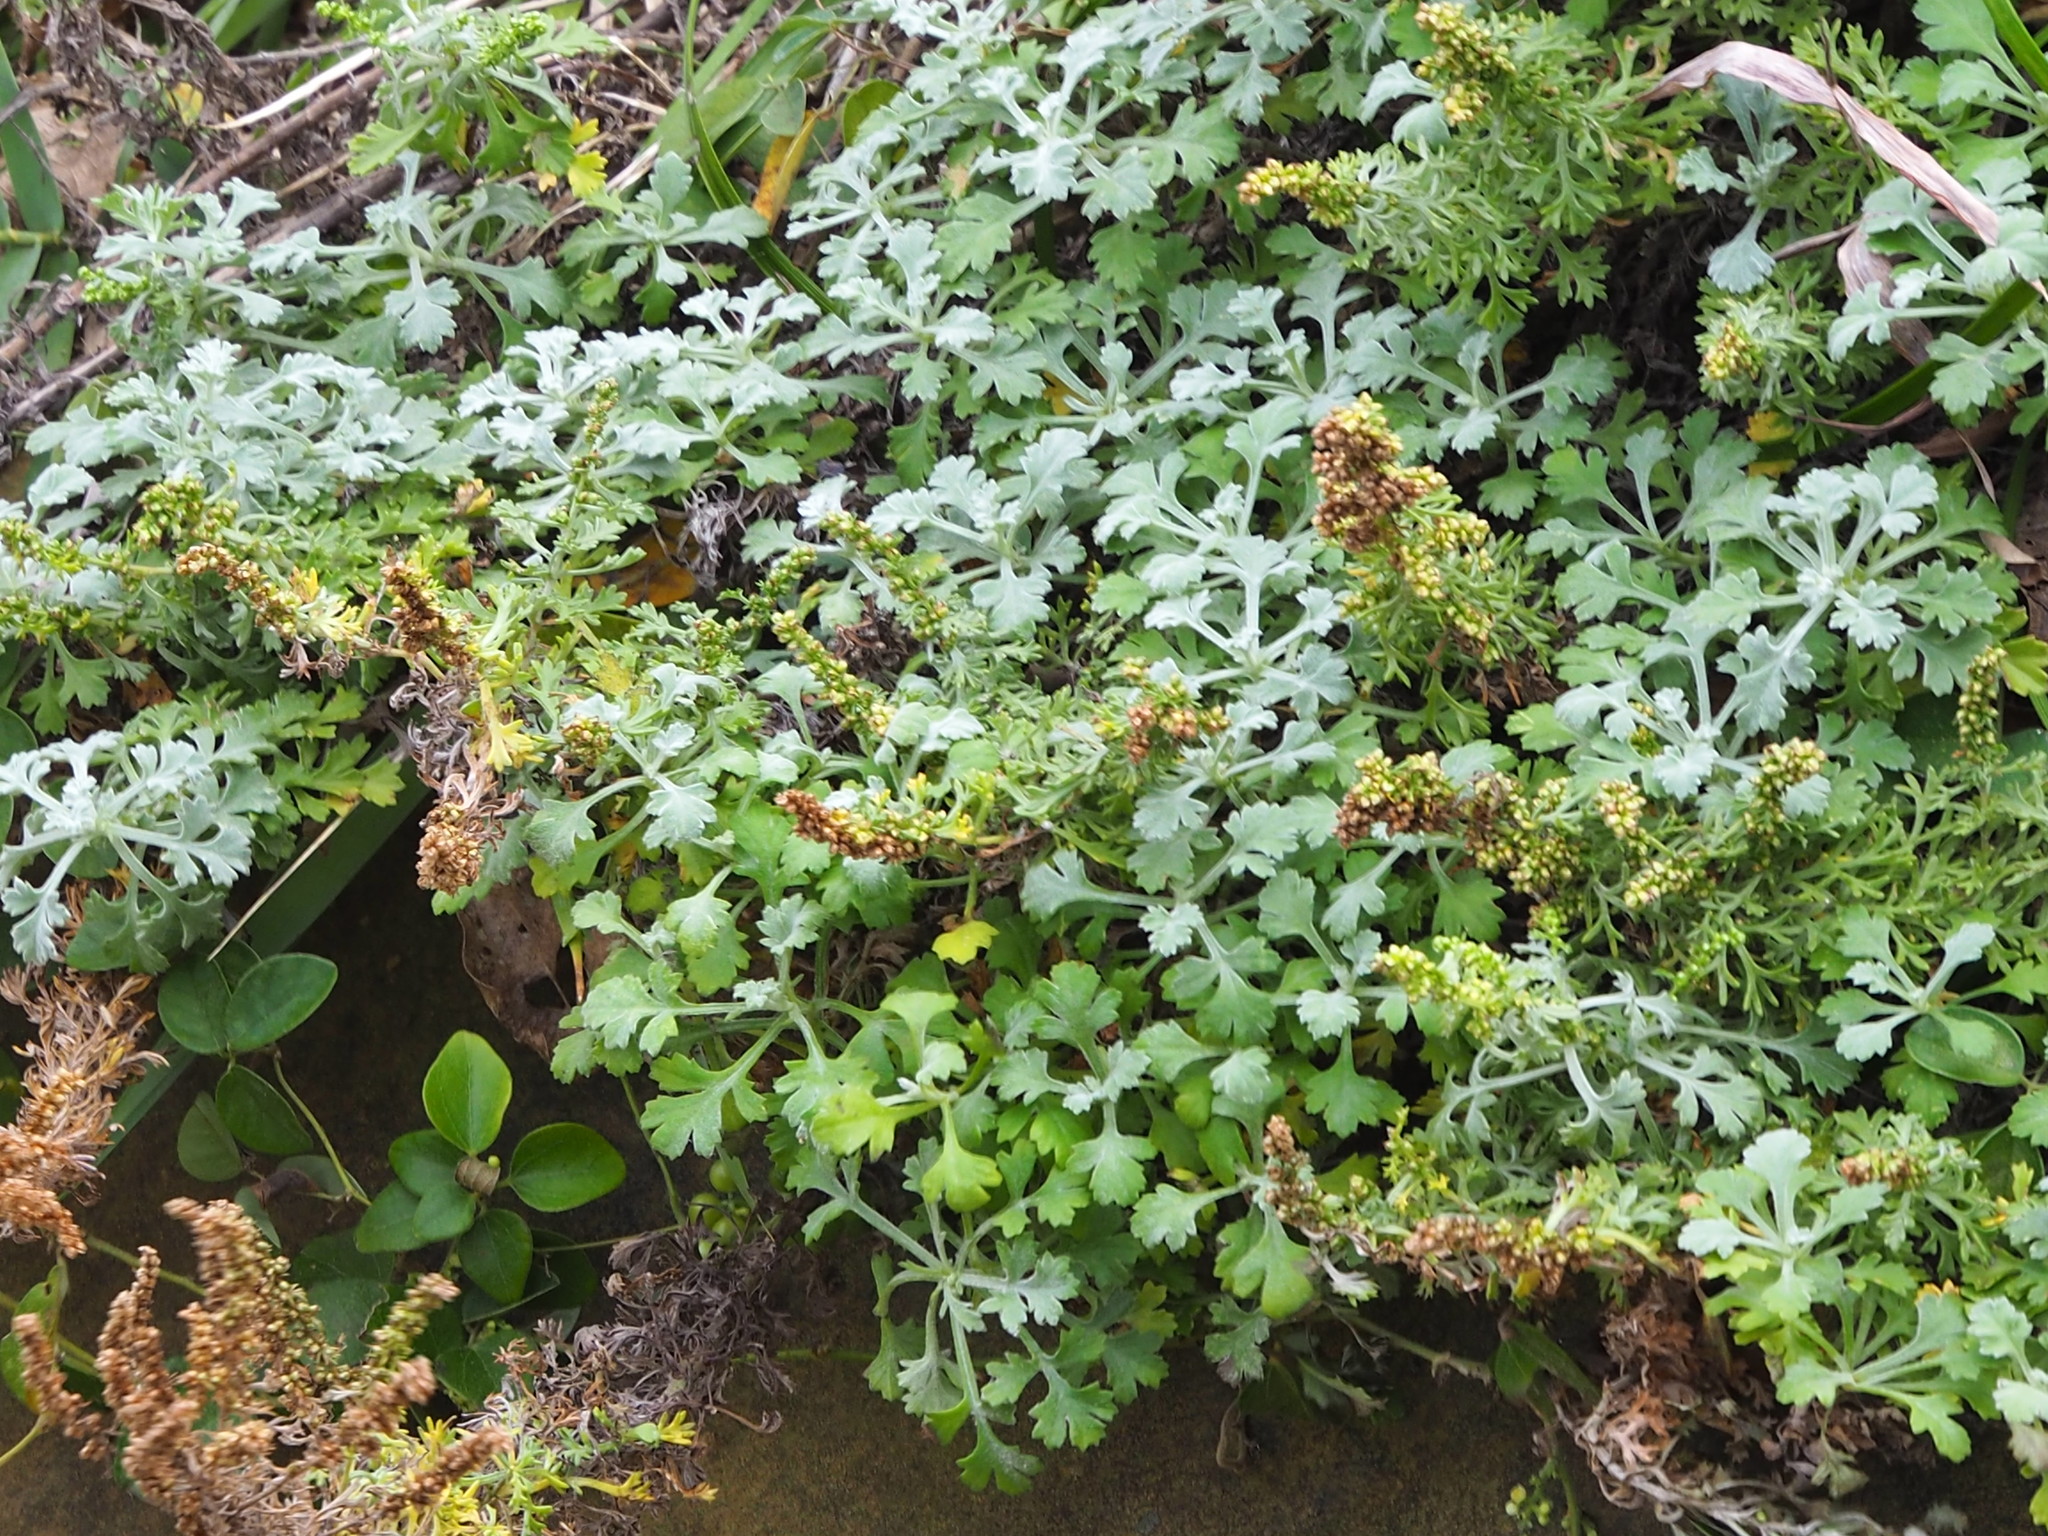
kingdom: Plantae
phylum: Tracheophyta
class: Magnoliopsida
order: Asterales
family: Asteraceae
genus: Artemisia
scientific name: Artemisia capillaris
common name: Yin-chen wormwood
